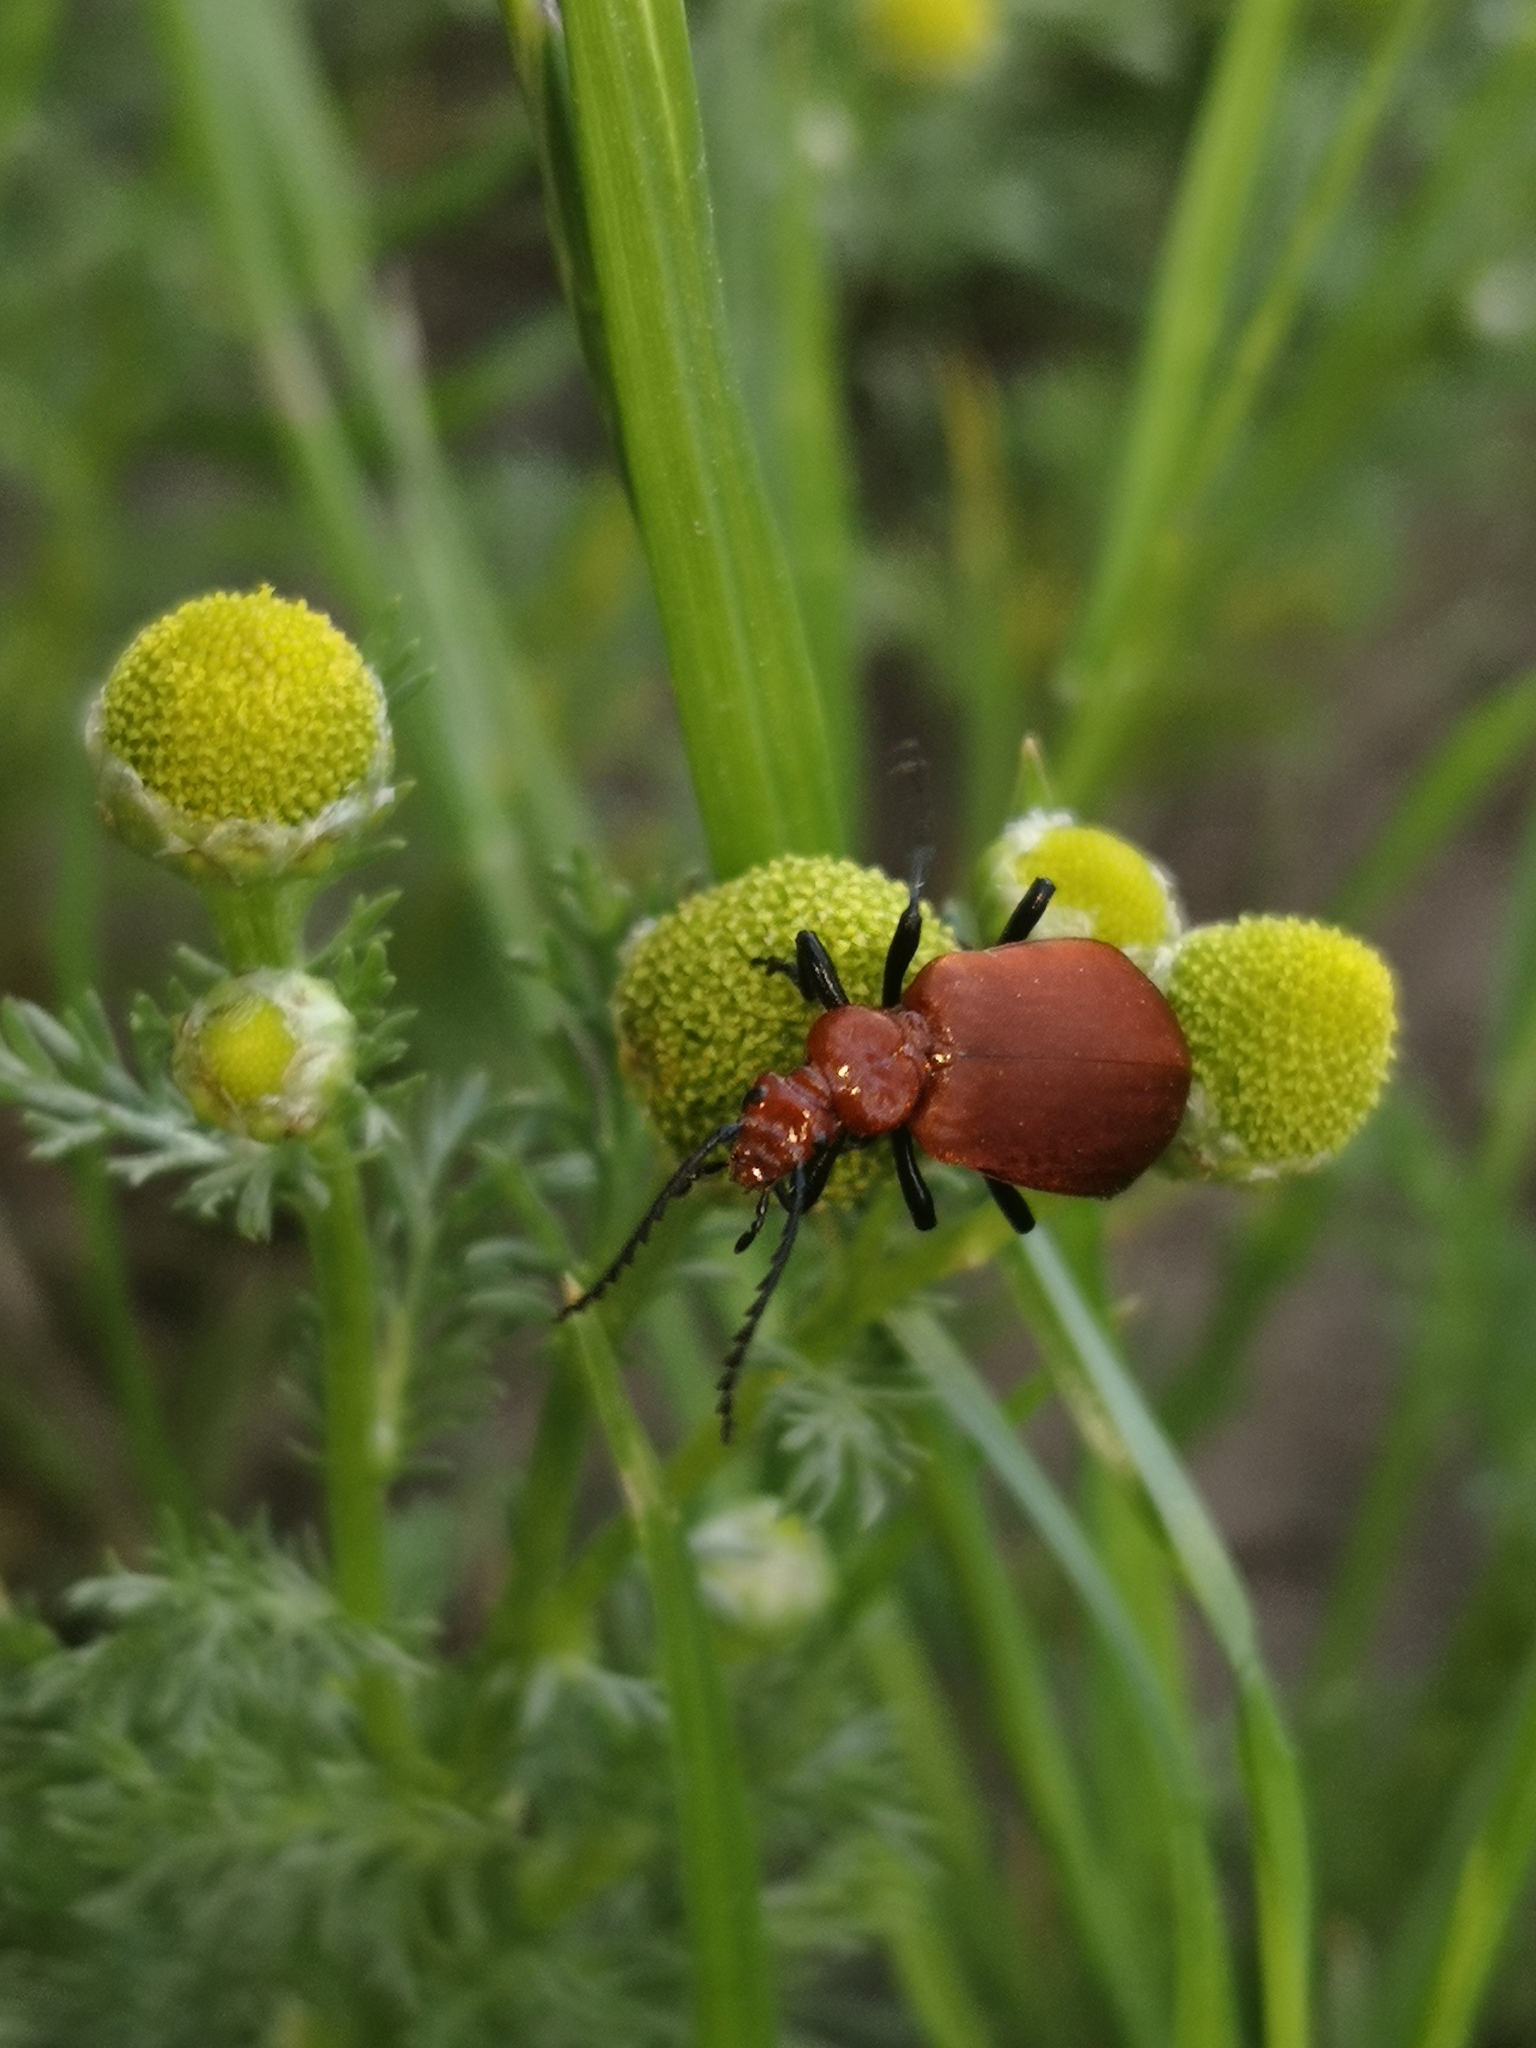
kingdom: Animalia
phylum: Arthropoda
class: Insecta
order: Coleoptera
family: Pyrochroidae
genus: Pyrochroa
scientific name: Pyrochroa serraticornis
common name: Red-headed cardinal beetle
